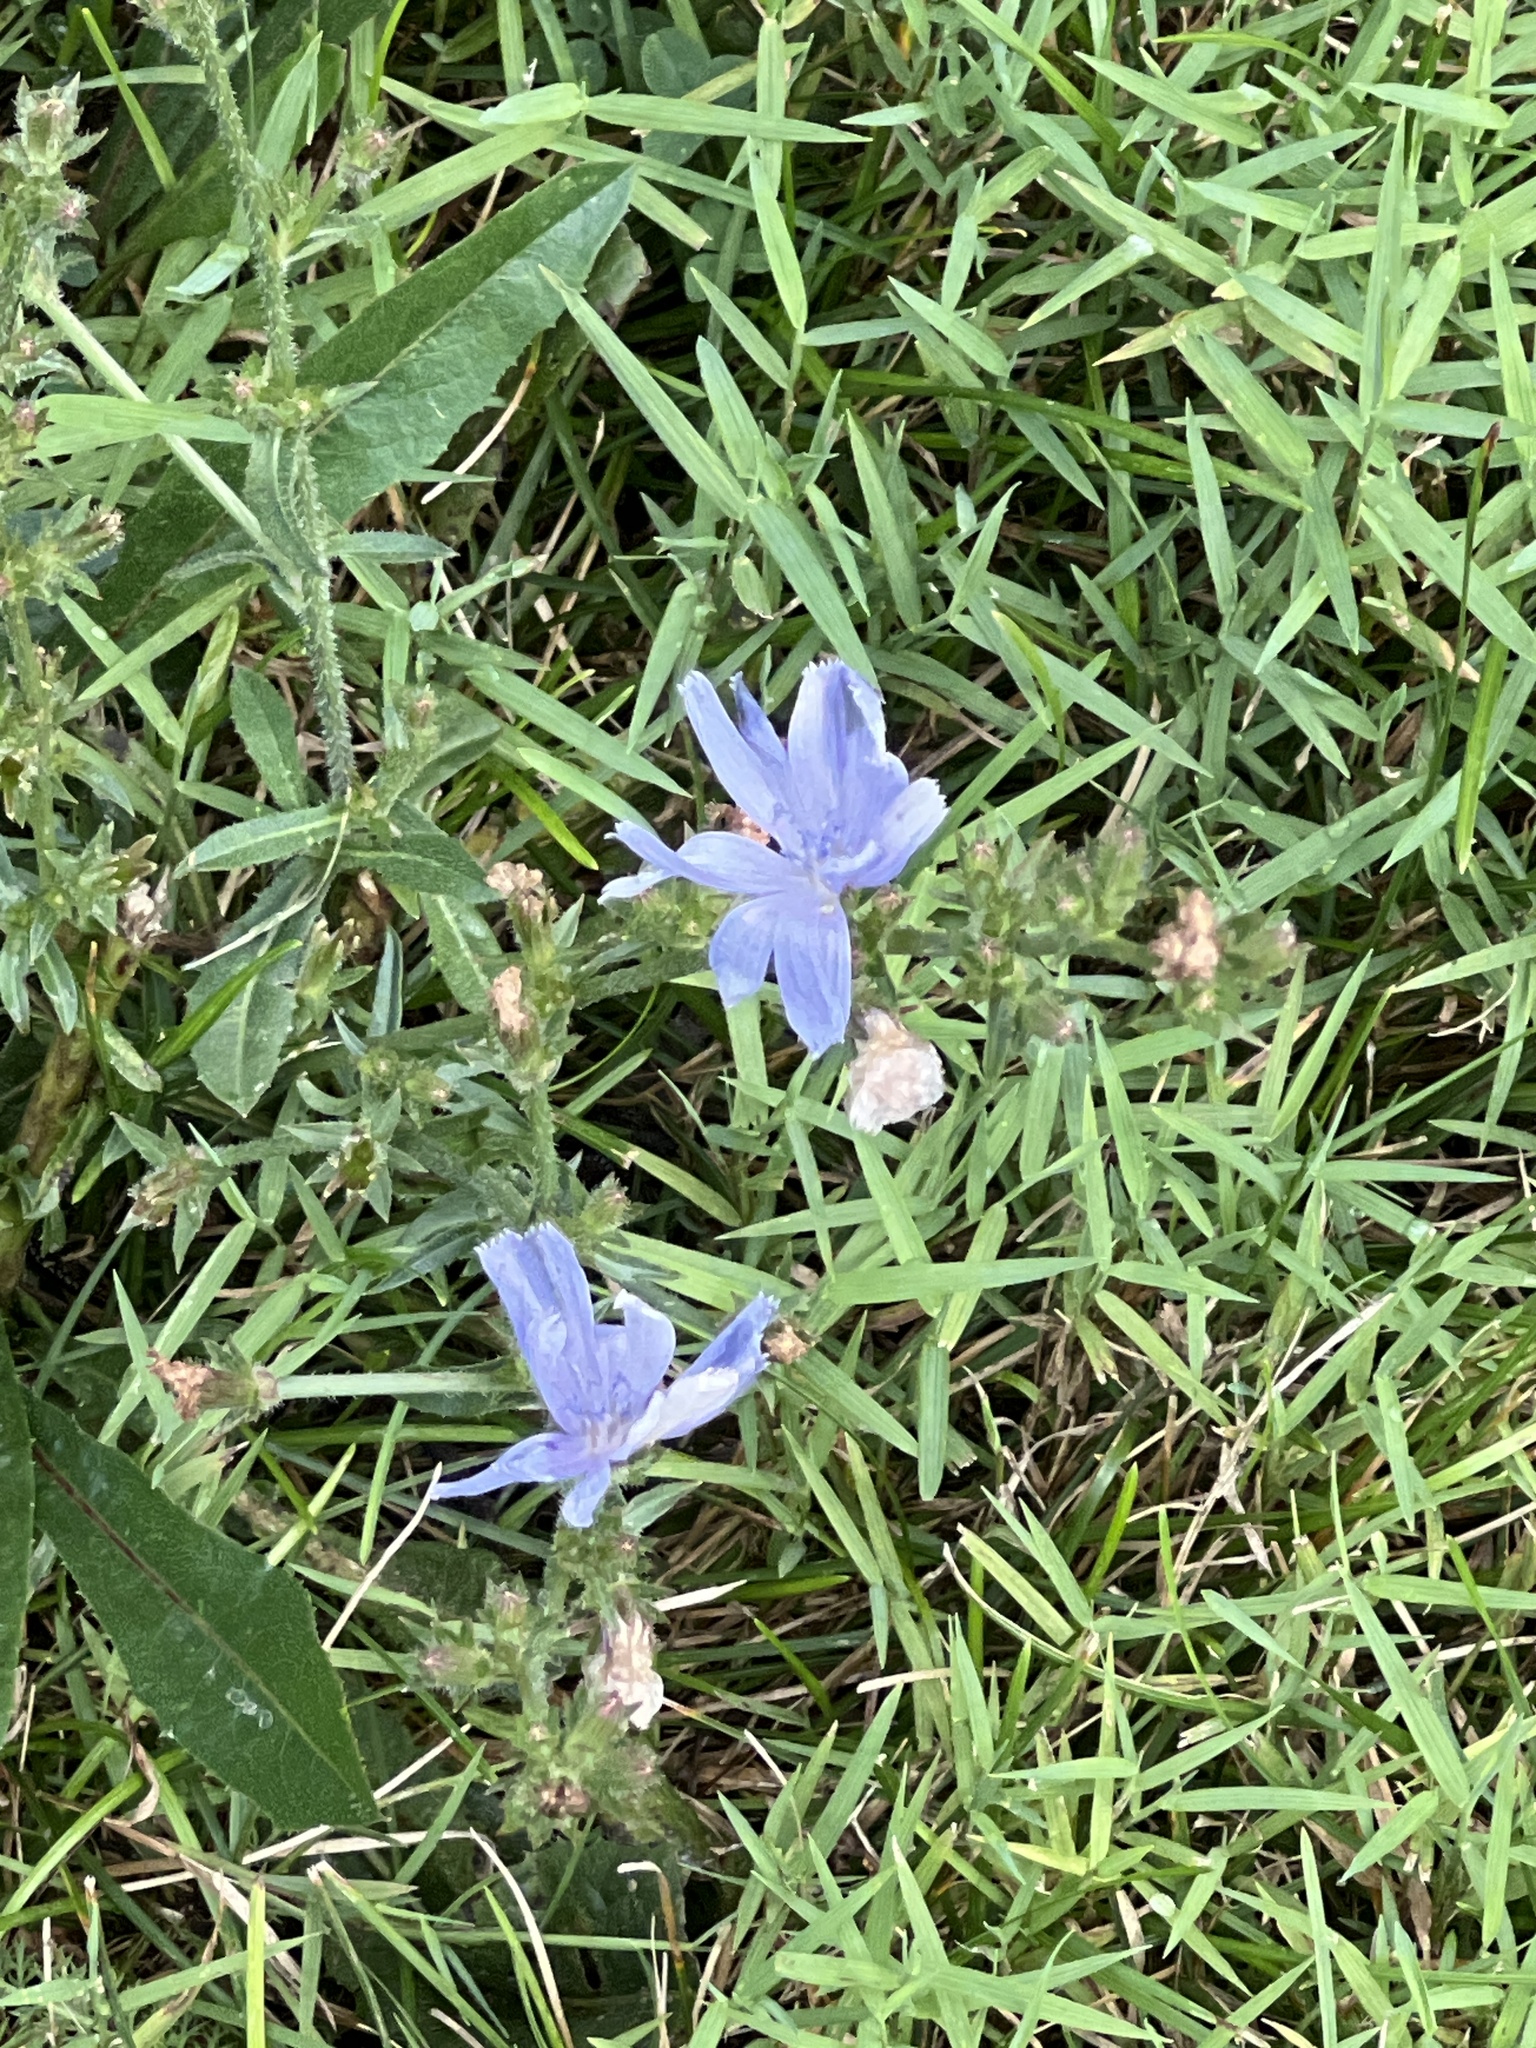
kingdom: Plantae
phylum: Tracheophyta
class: Magnoliopsida
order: Asterales
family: Asteraceae
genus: Cichorium
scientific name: Cichorium intybus
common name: Chicory
